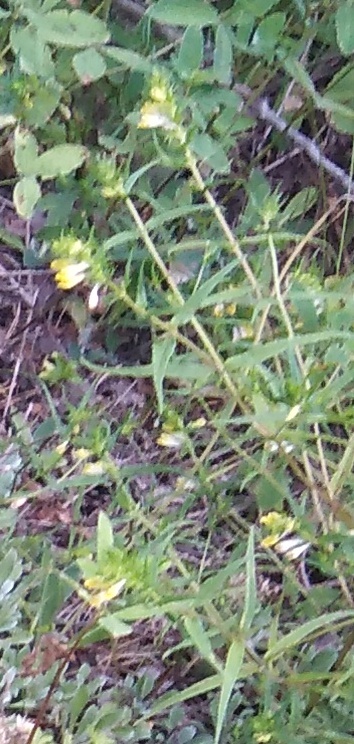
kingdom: Plantae
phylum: Tracheophyta
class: Magnoliopsida
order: Lamiales
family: Orobanchaceae
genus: Melampyrum
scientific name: Melampyrum pratense
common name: Common cow-wheat
